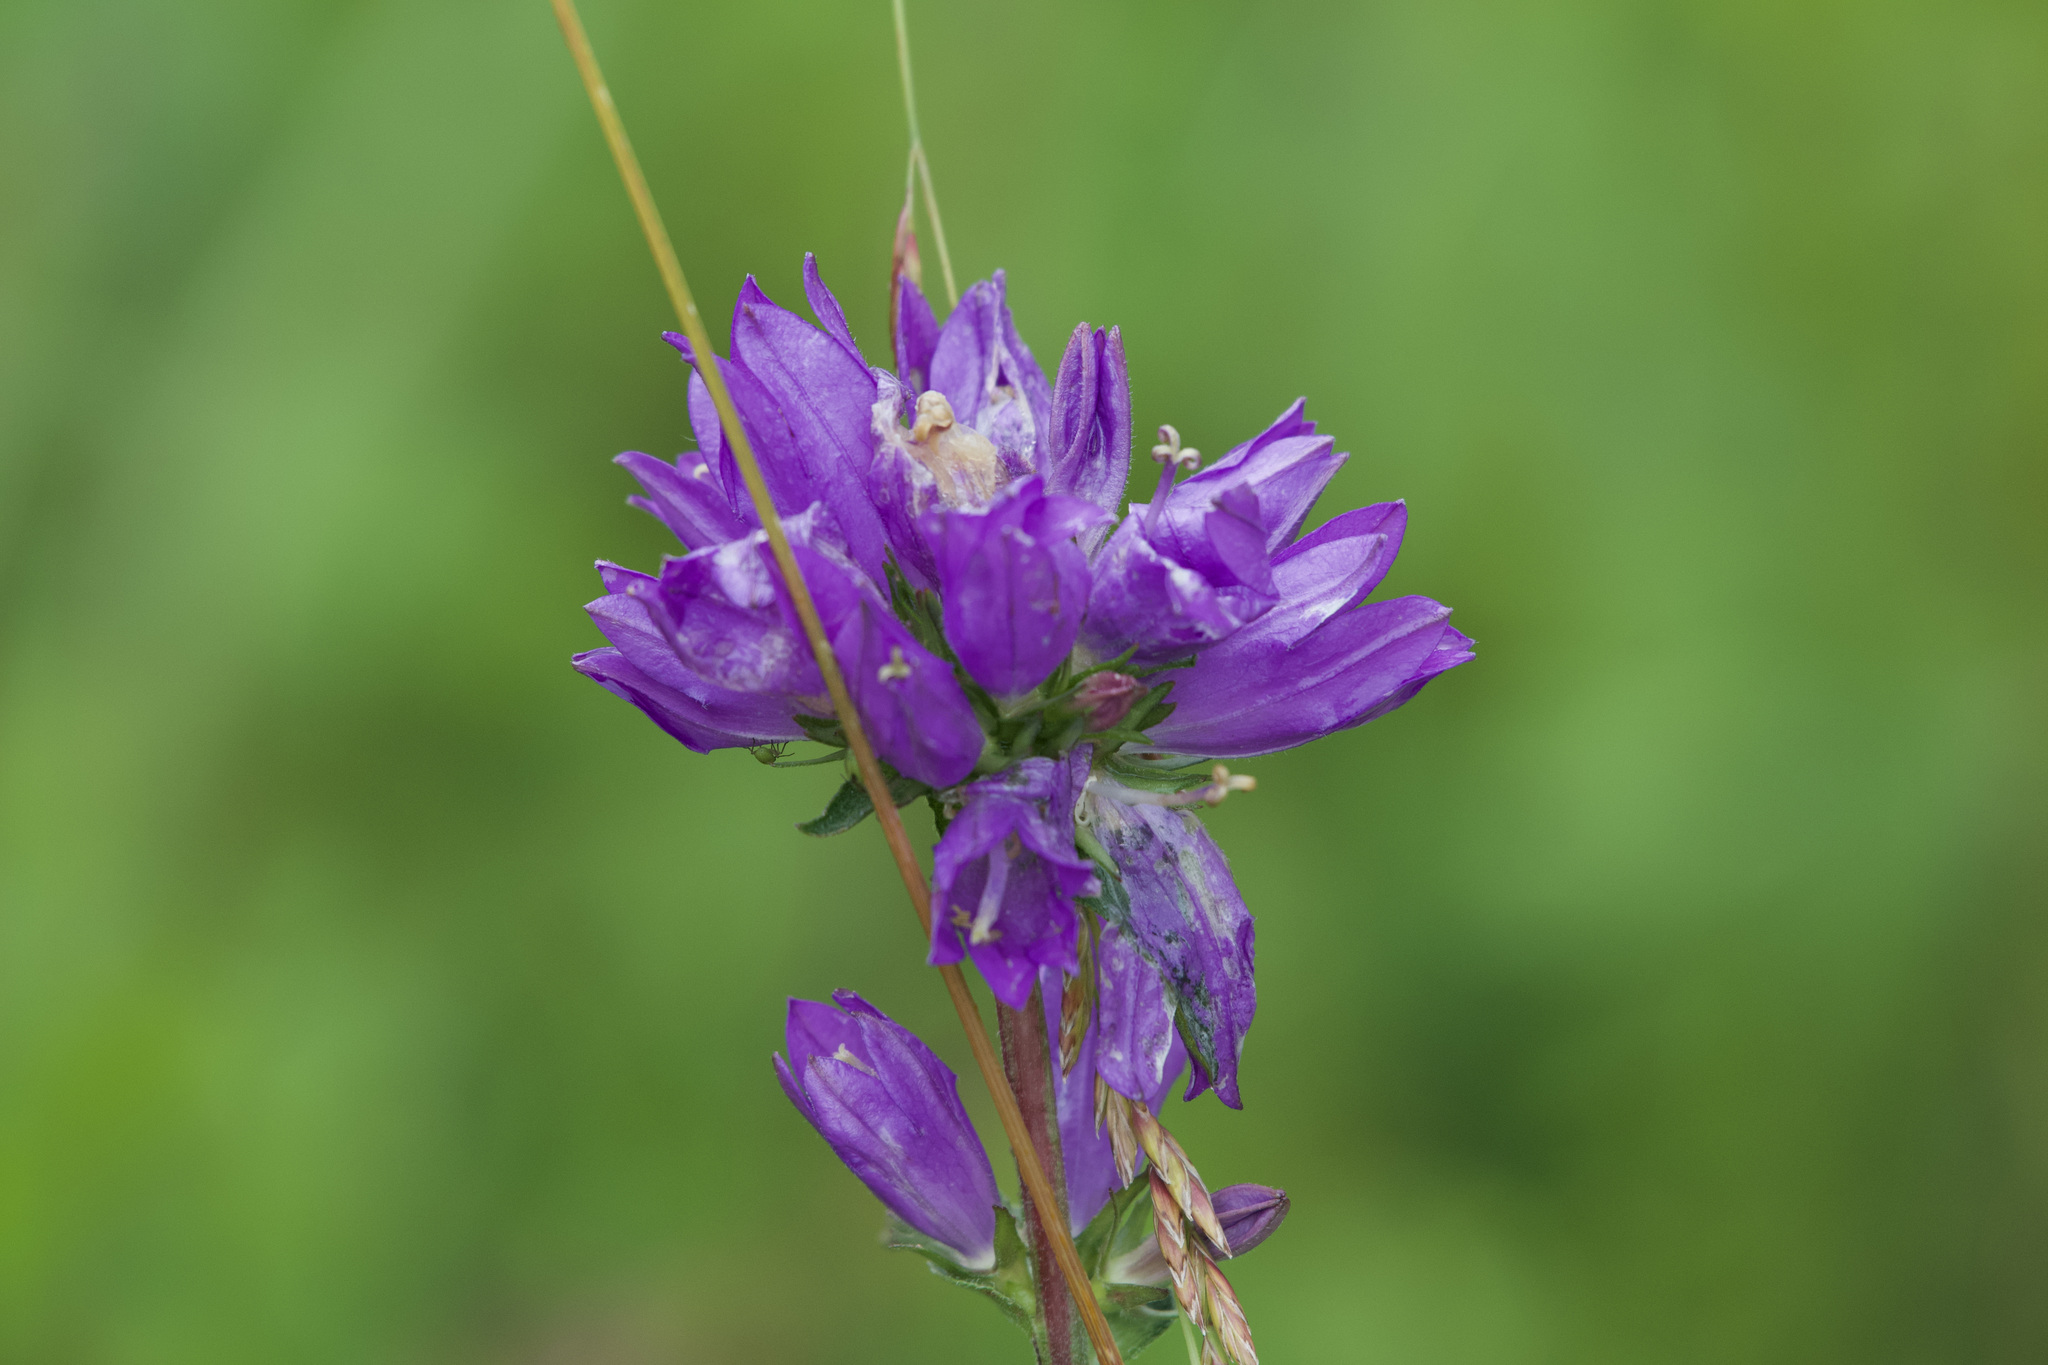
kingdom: Plantae
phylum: Tracheophyta
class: Magnoliopsida
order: Asterales
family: Campanulaceae
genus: Campanula
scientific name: Campanula glomerata
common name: Clustered bellflower
